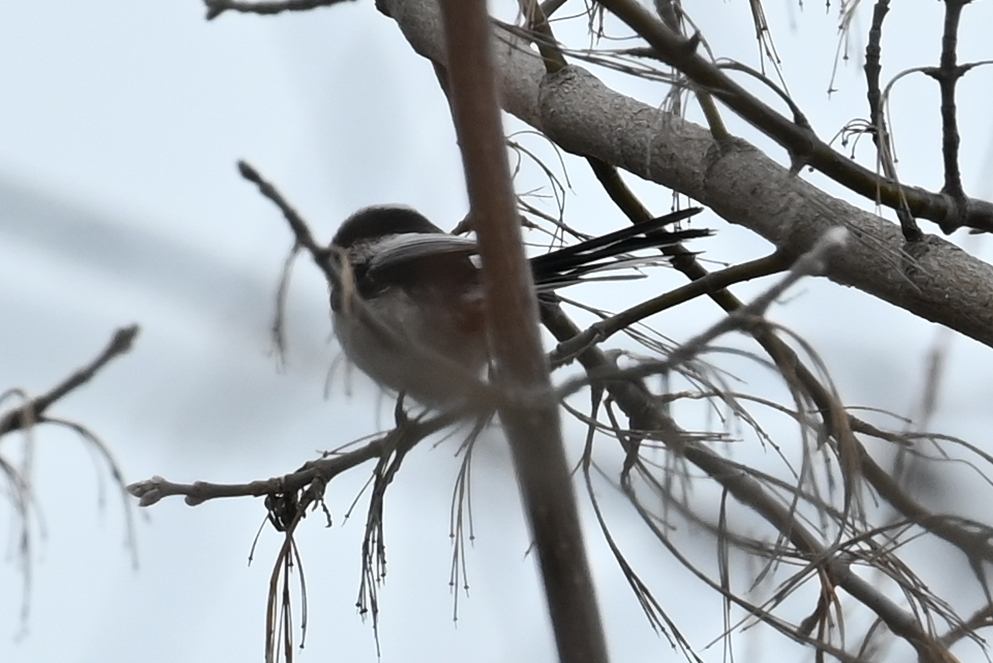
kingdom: Animalia
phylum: Chordata
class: Aves
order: Passeriformes
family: Aegithalidae
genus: Aegithalos
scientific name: Aegithalos caudatus
